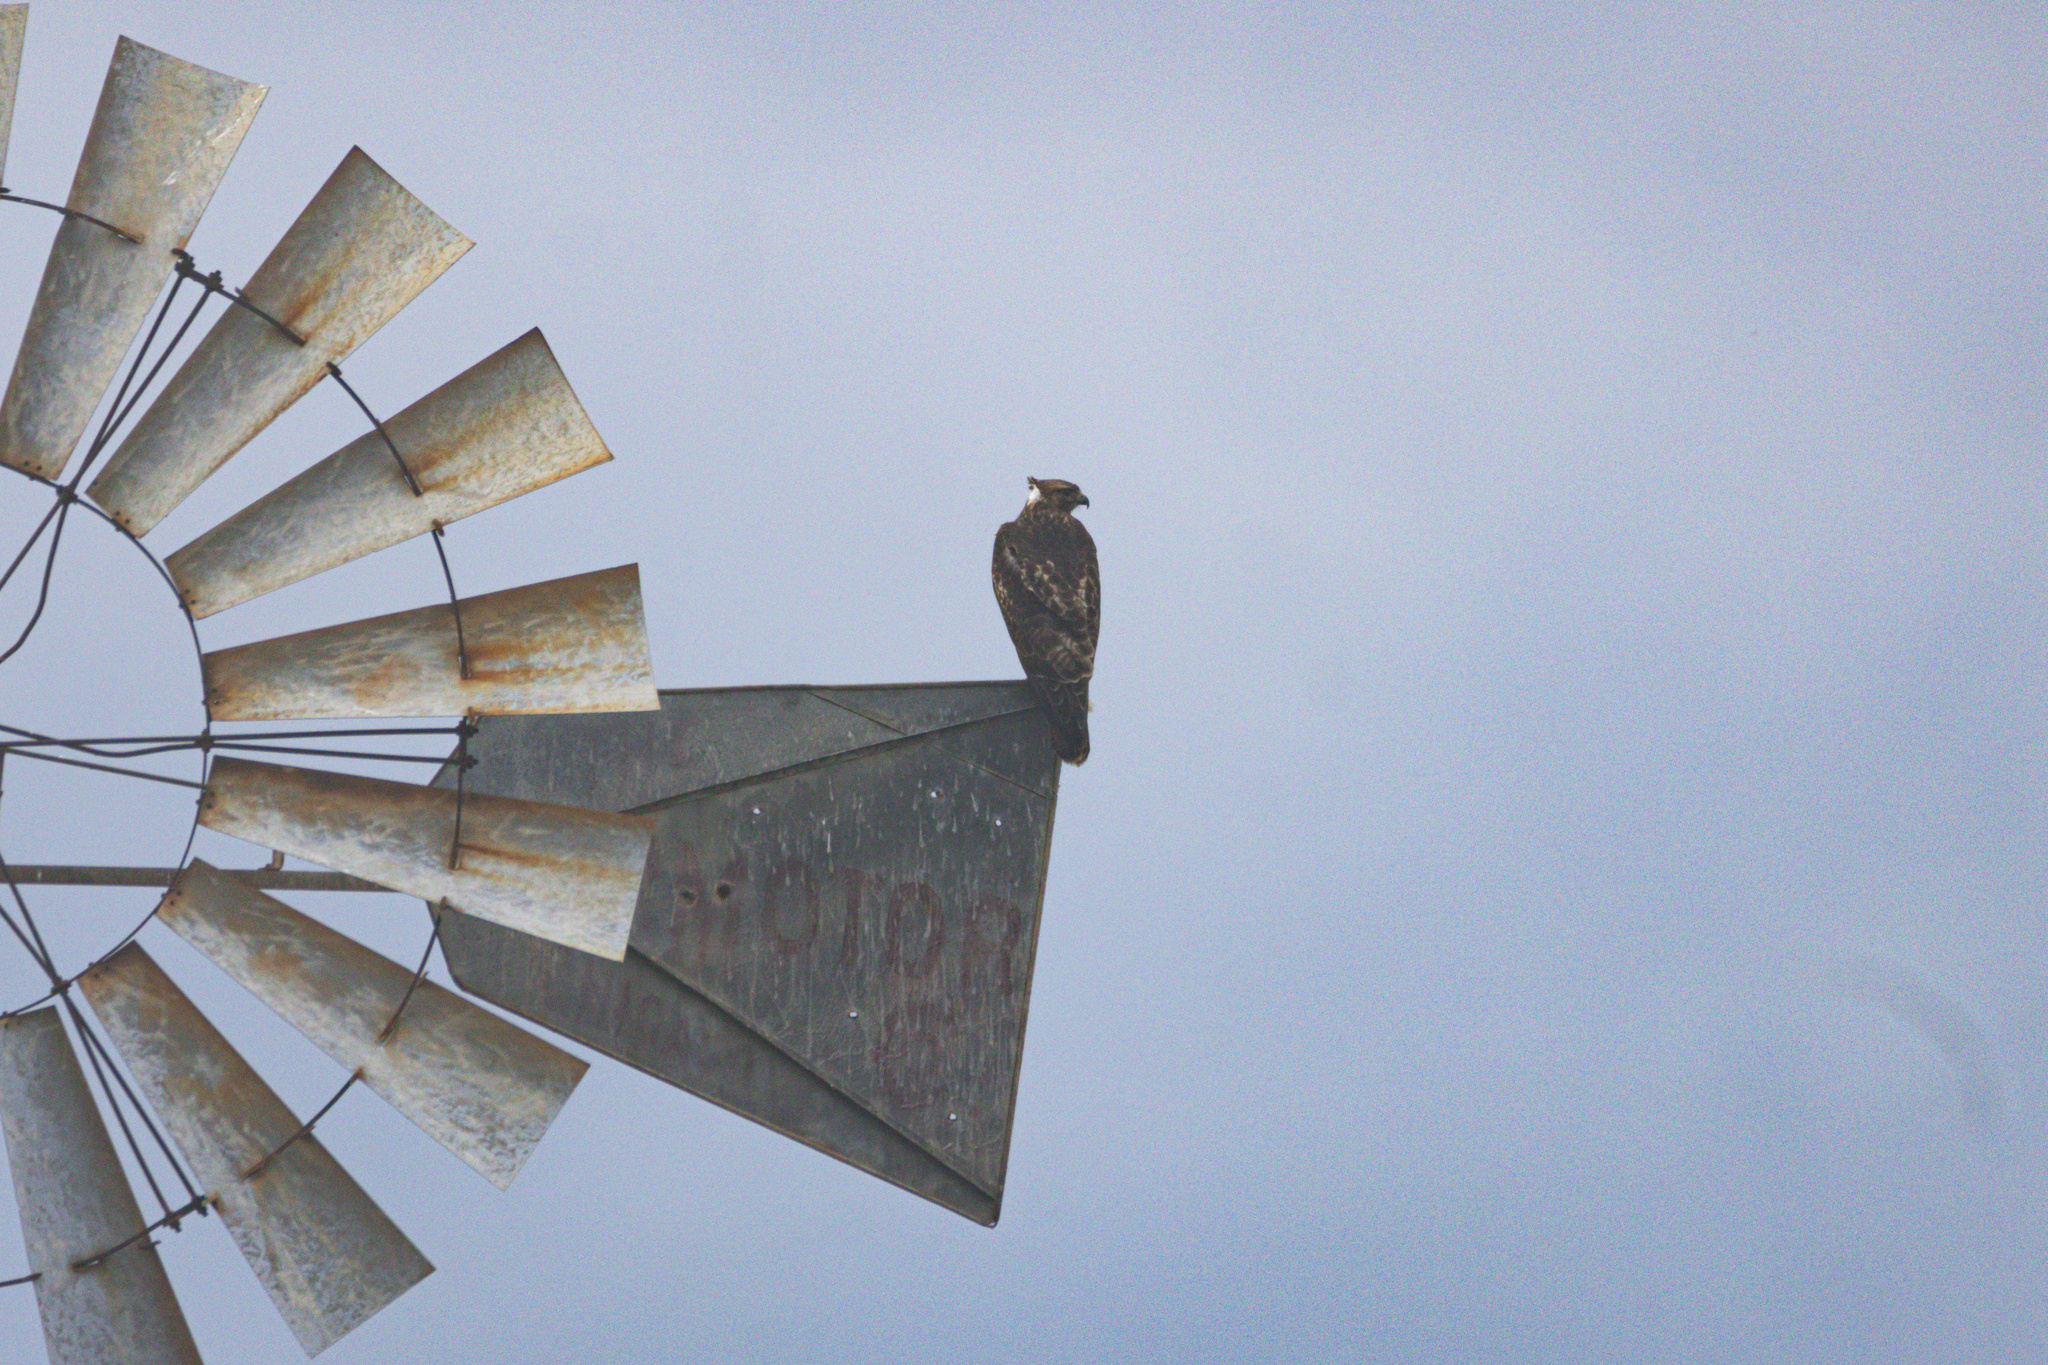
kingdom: Animalia
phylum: Chordata
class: Aves
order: Accipitriformes
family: Accipitridae
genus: Buteo
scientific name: Buteo jamaicensis
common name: Red-tailed hawk
